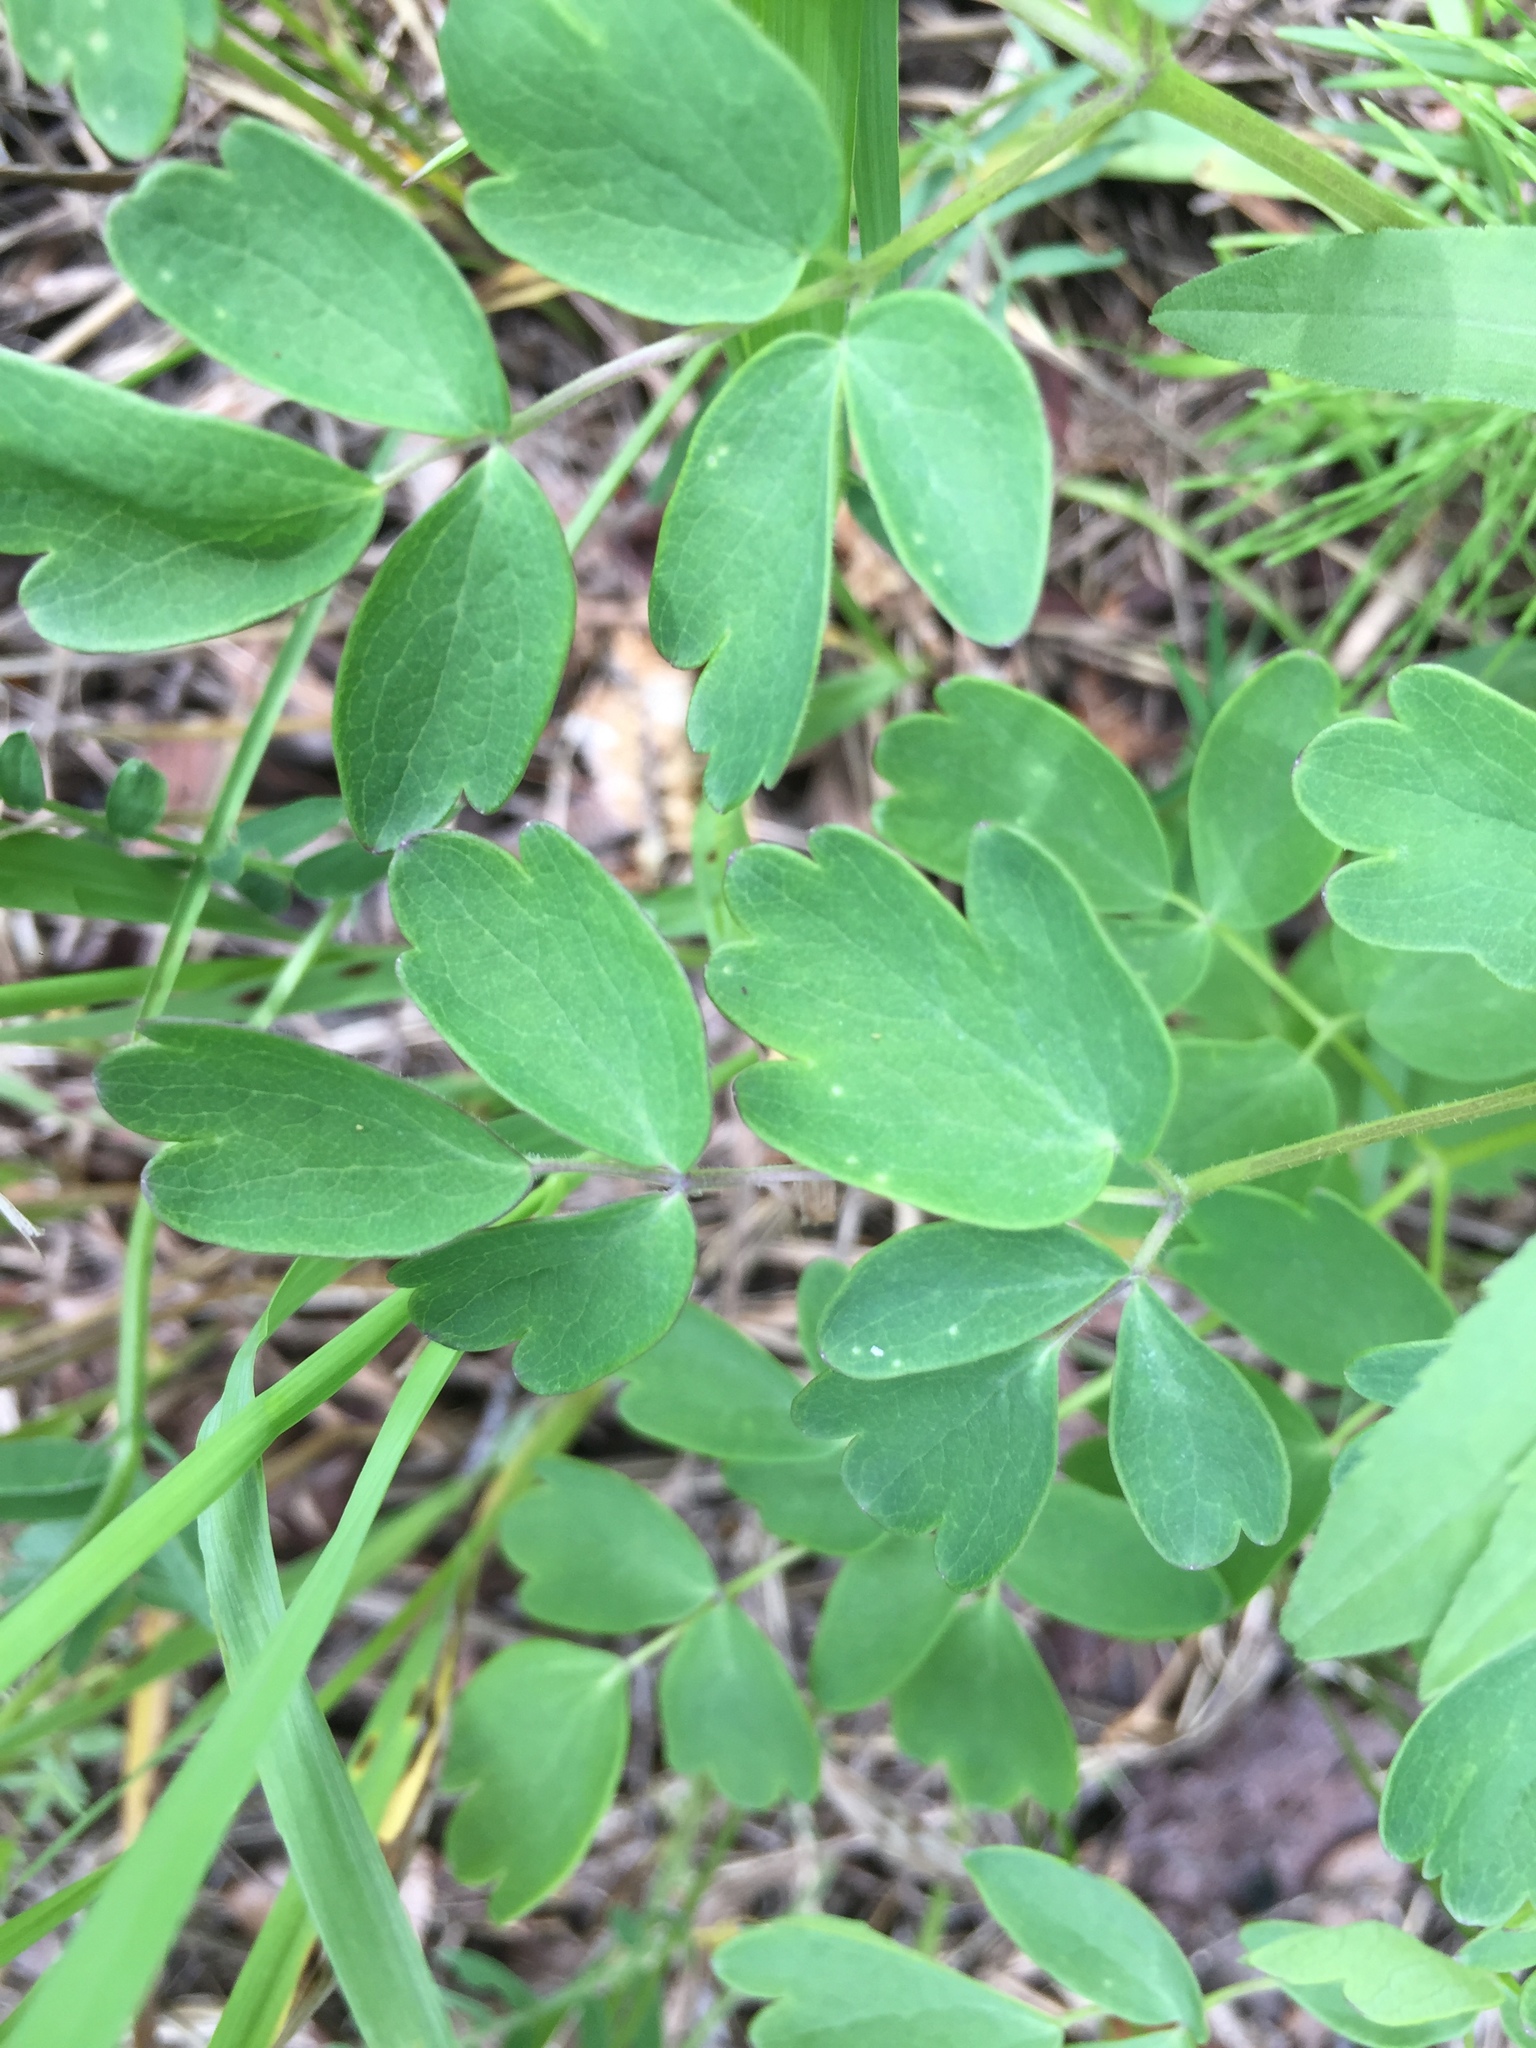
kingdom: Plantae
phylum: Tracheophyta
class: Magnoliopsida
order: Ranunculales
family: Ranunculaceae
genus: Thalictrum
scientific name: Thalictrum dasycarpum
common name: Purple meadow-rue
